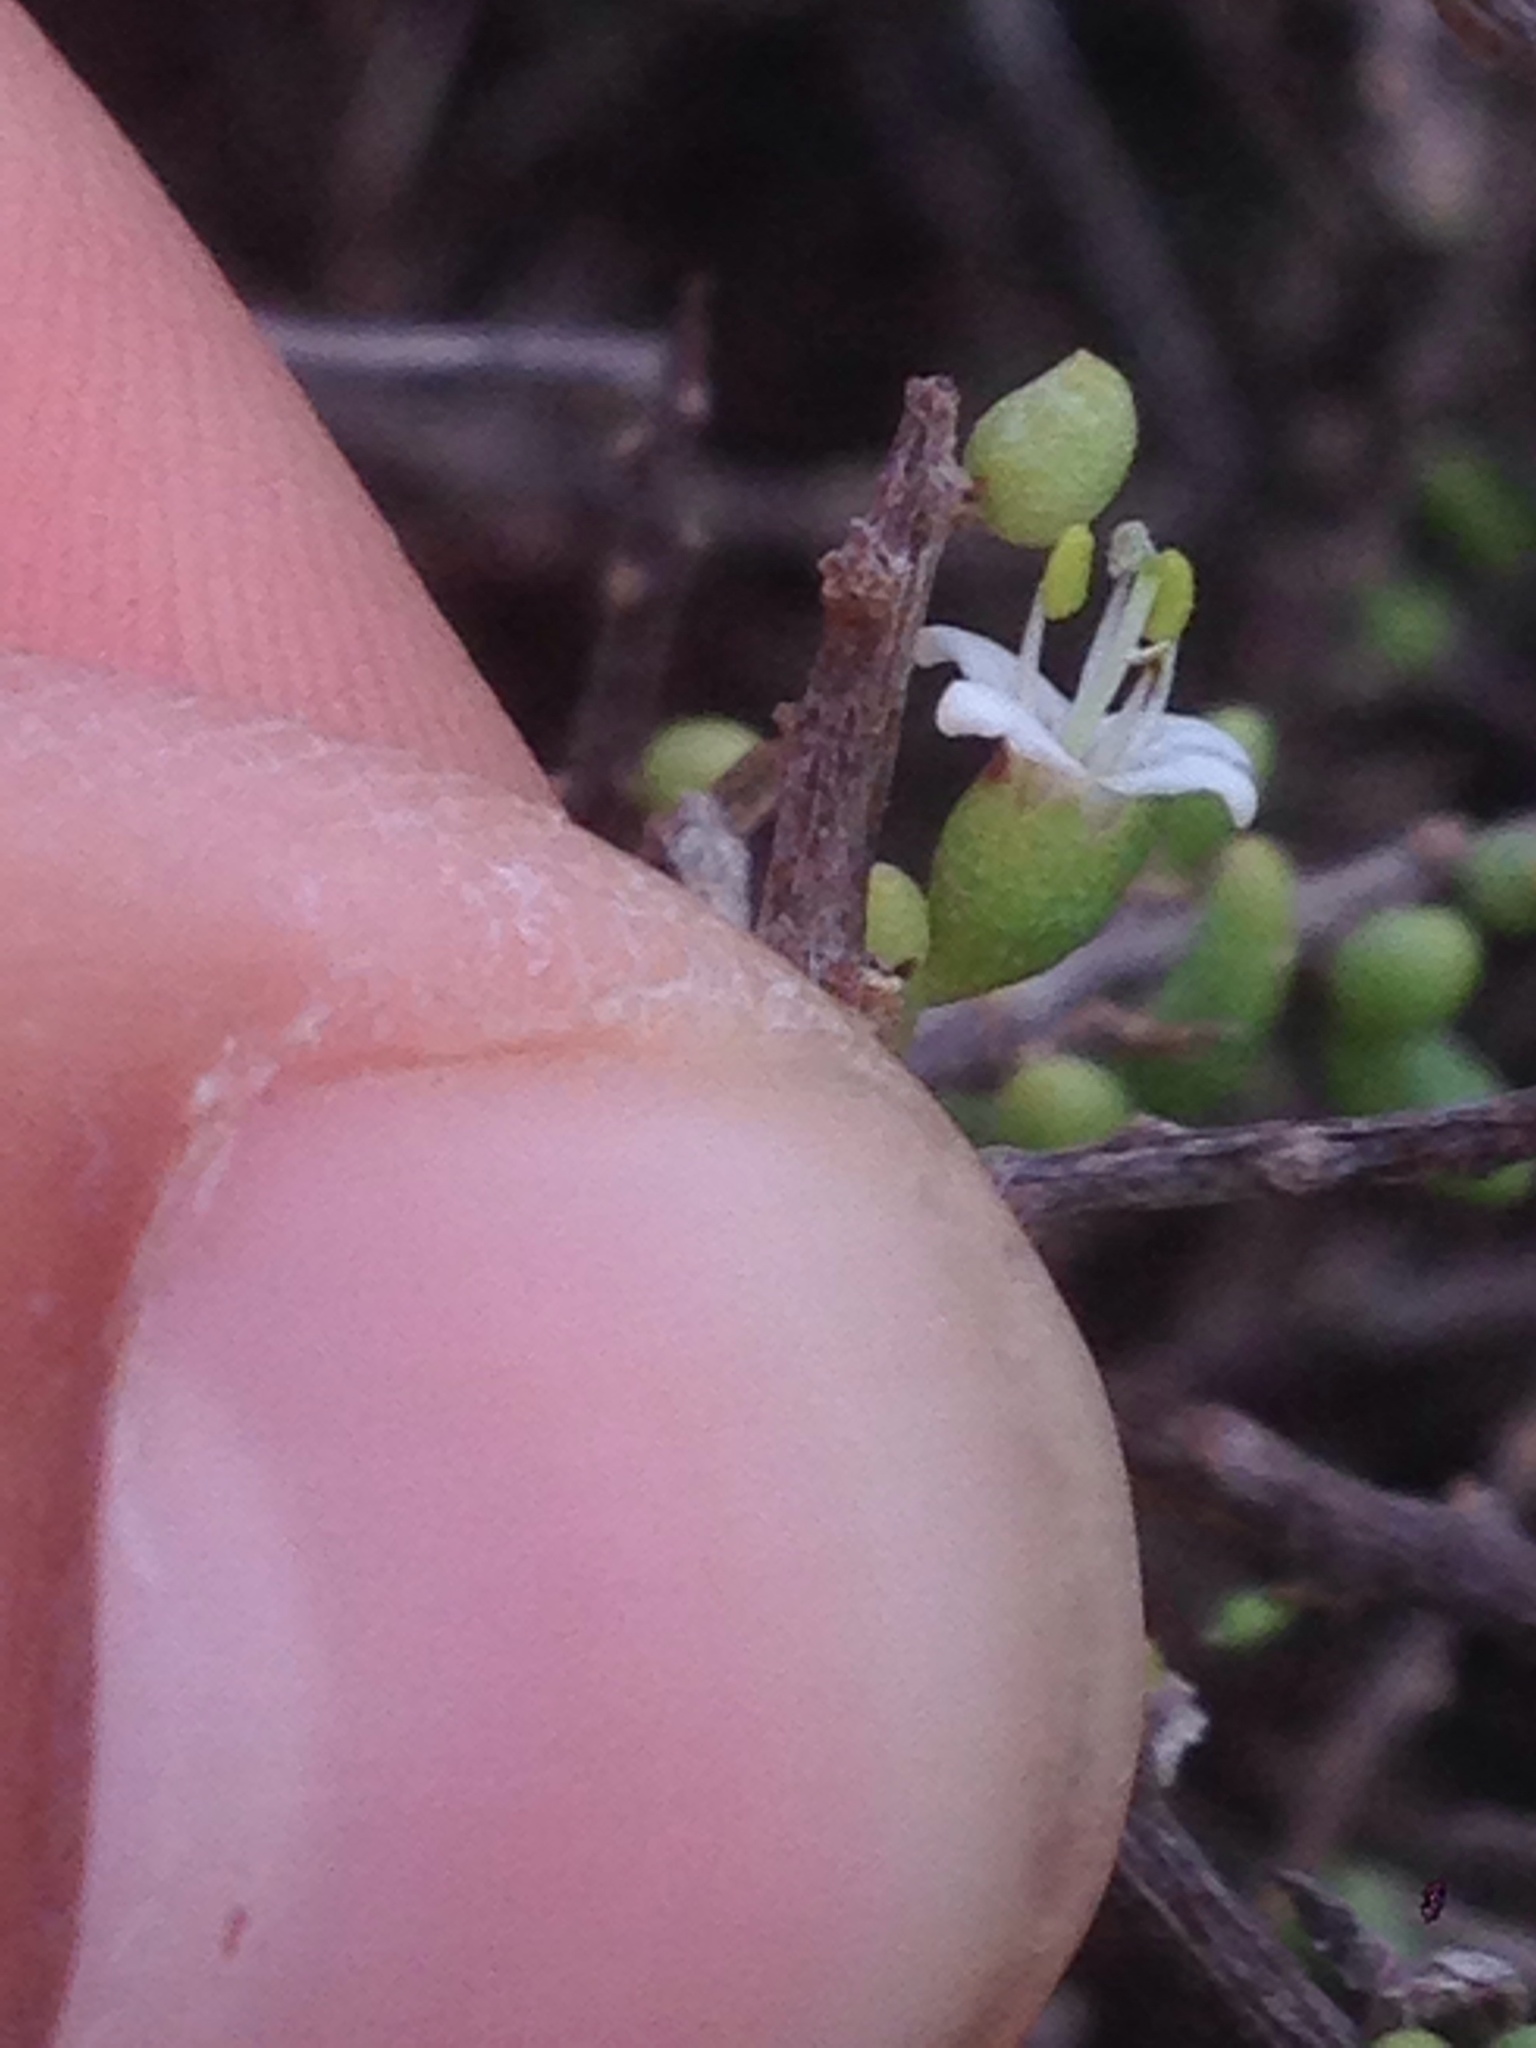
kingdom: Plantae
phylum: Tracheophyta
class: Magnoliopsida
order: Solanales
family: Solanaceae
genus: Lycium
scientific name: Lycium californicum
